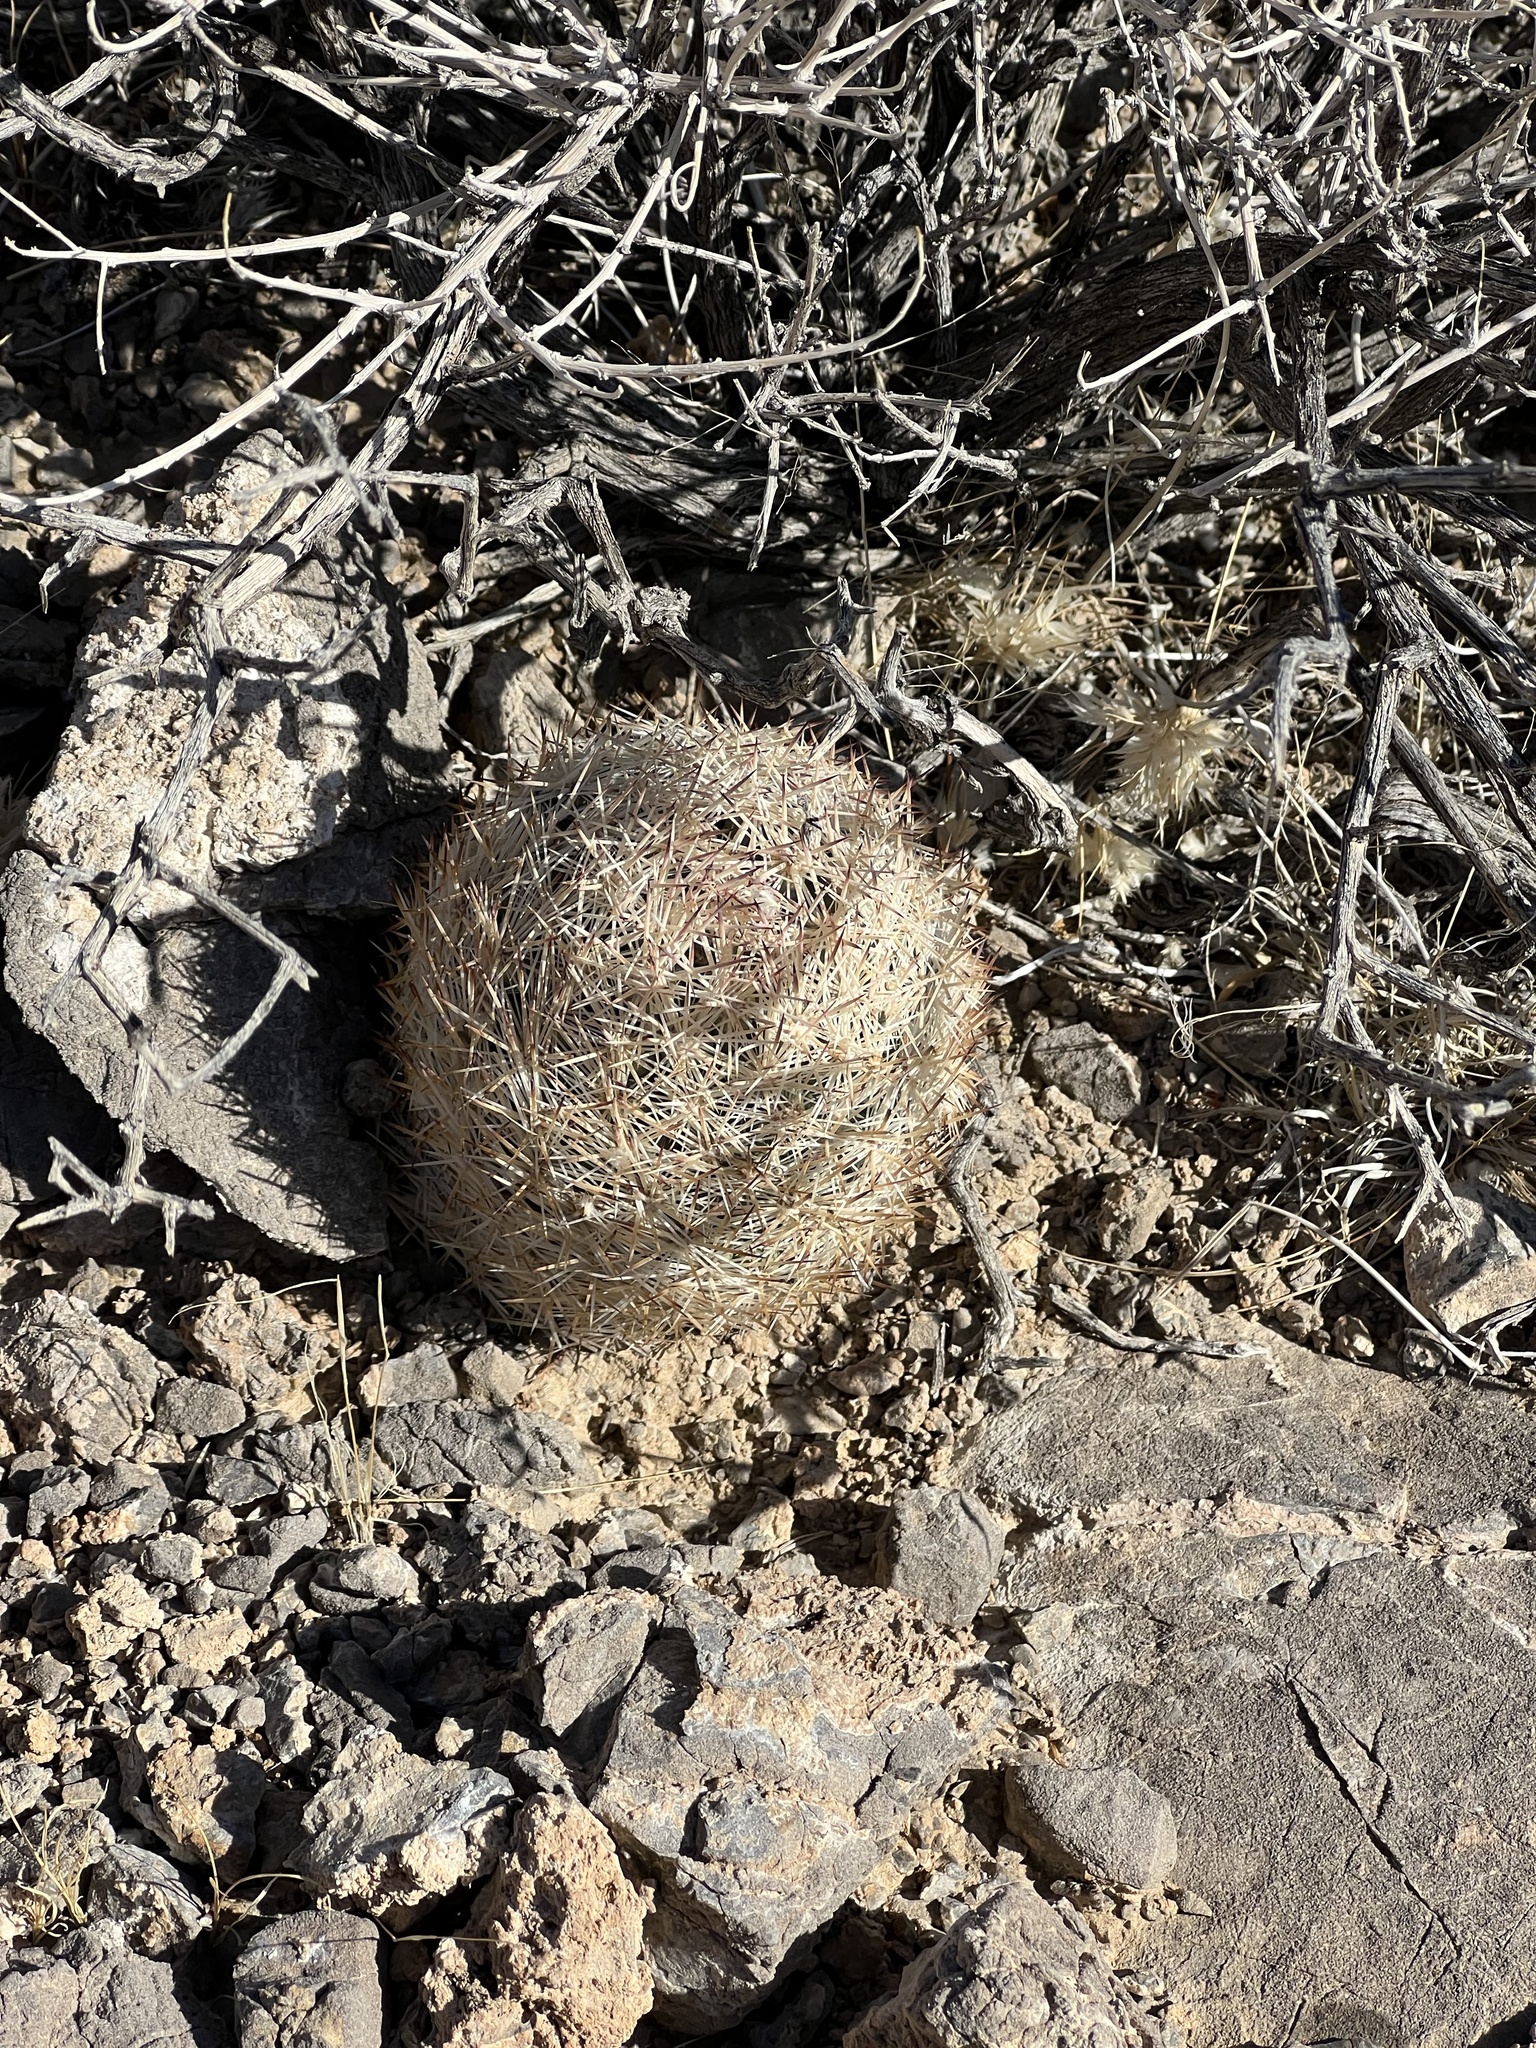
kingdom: Plantae
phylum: Tracheophyta
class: Magnoliopsida
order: Caryophyllales
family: Cactaceae
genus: Pelecyphora
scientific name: Pelecyphora dasyacantha
